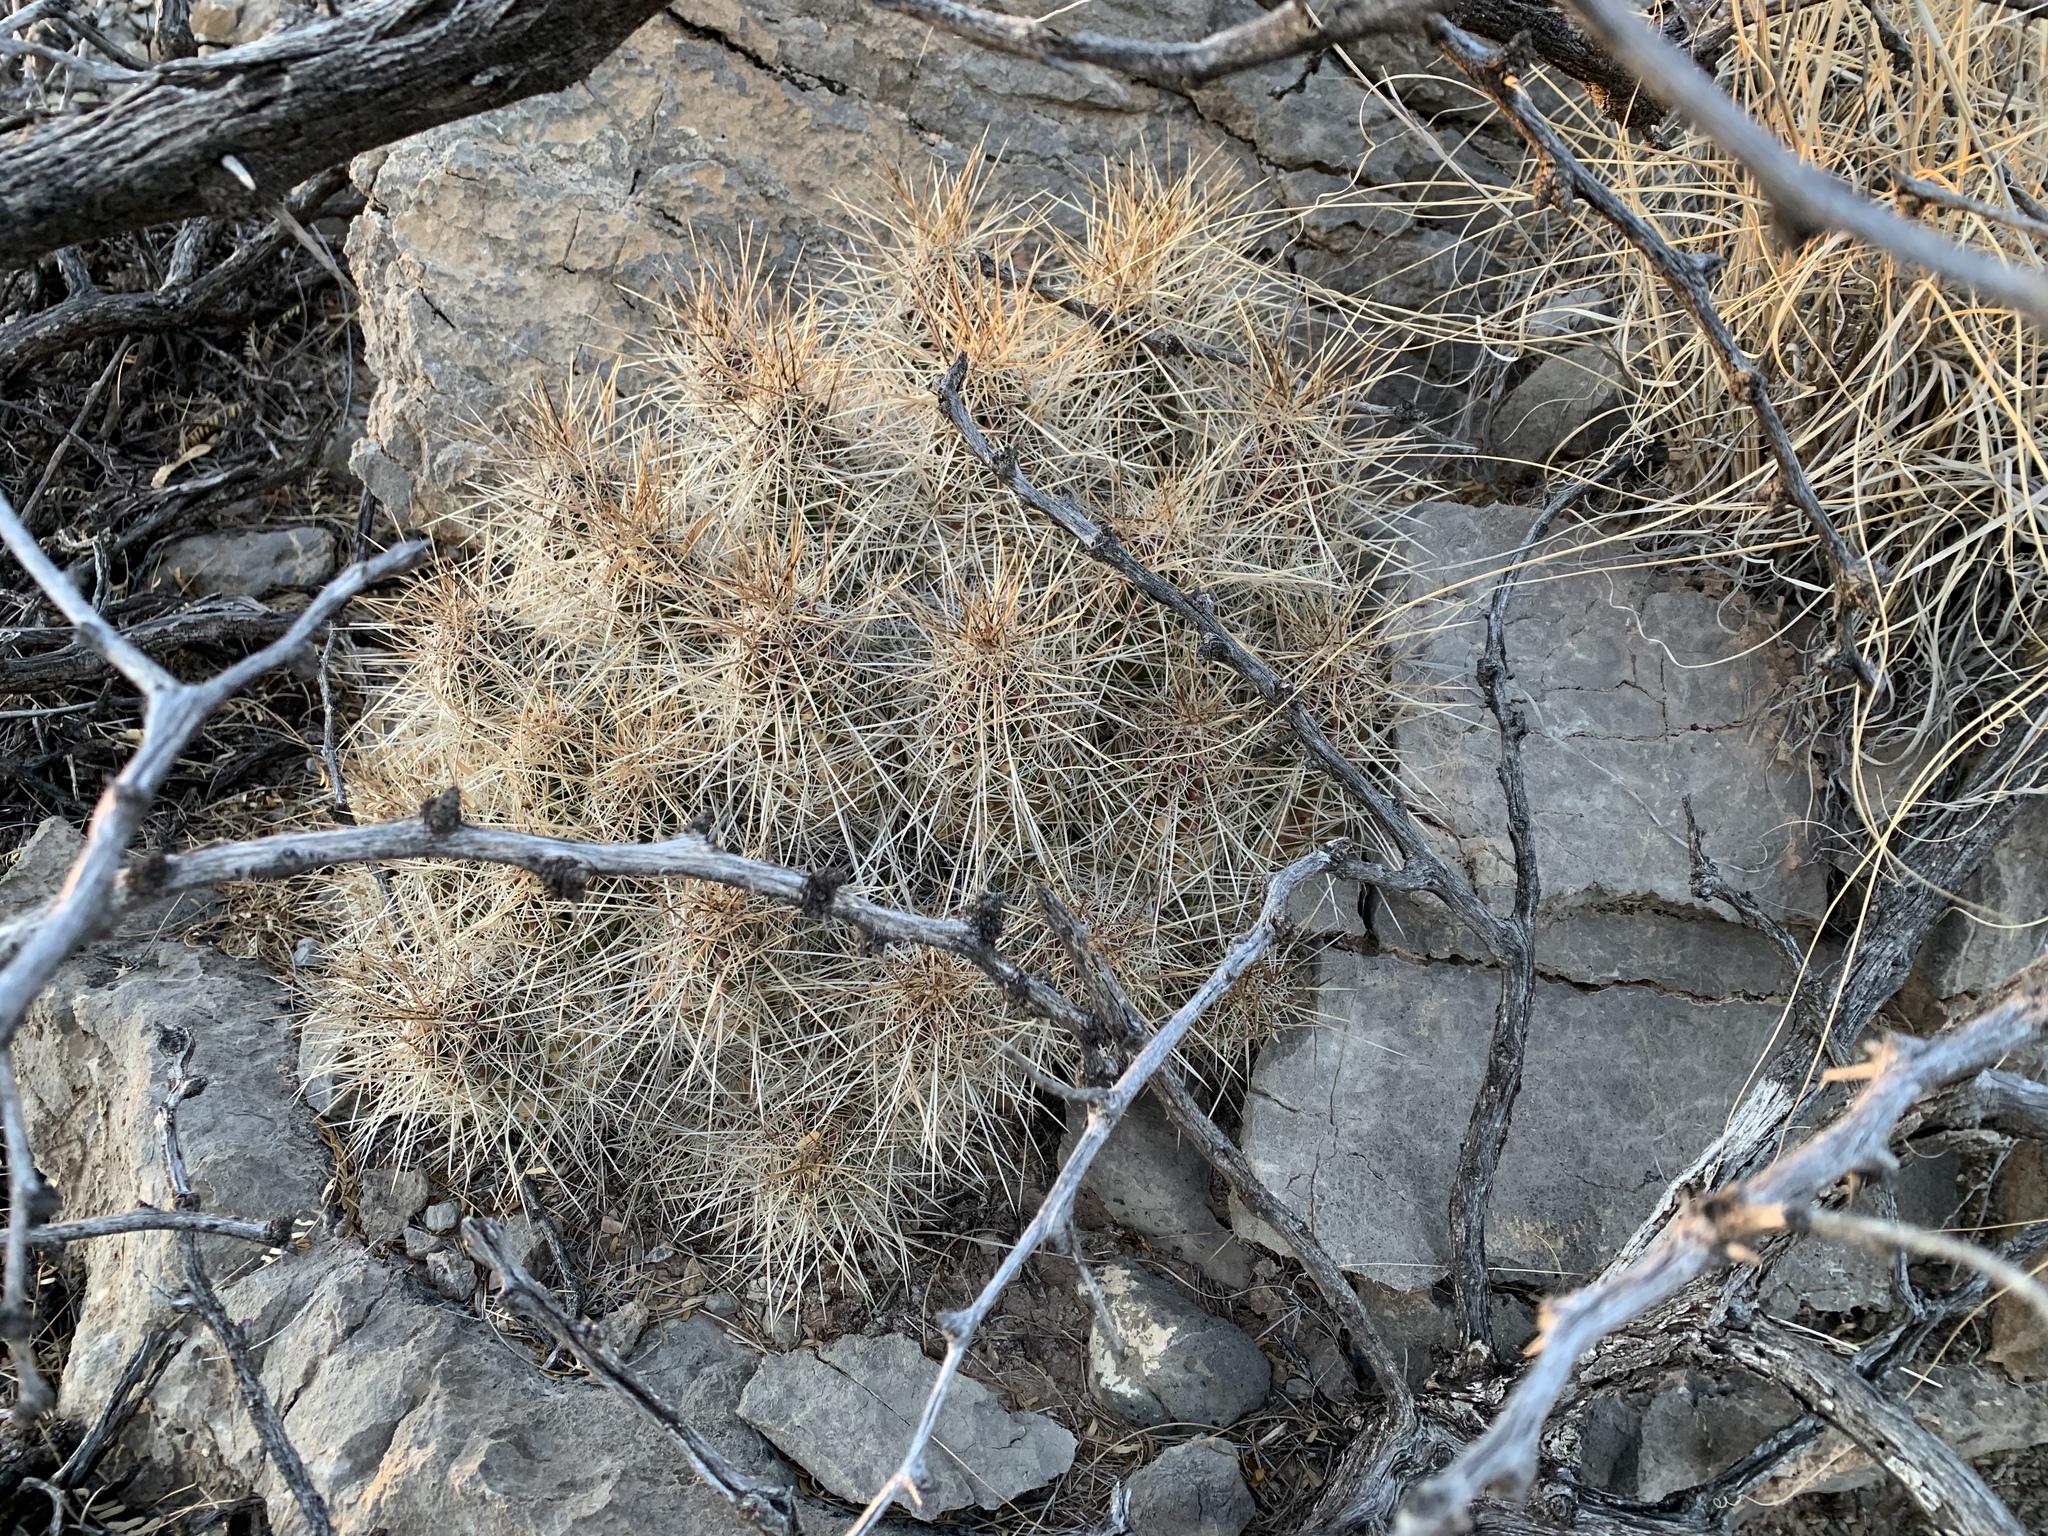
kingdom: Plantae
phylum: Tracheophyta
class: Magnoliopsida
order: Caryophyllales
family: Cactaceae
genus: Echinocereus
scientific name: Echinocereus stramineus
